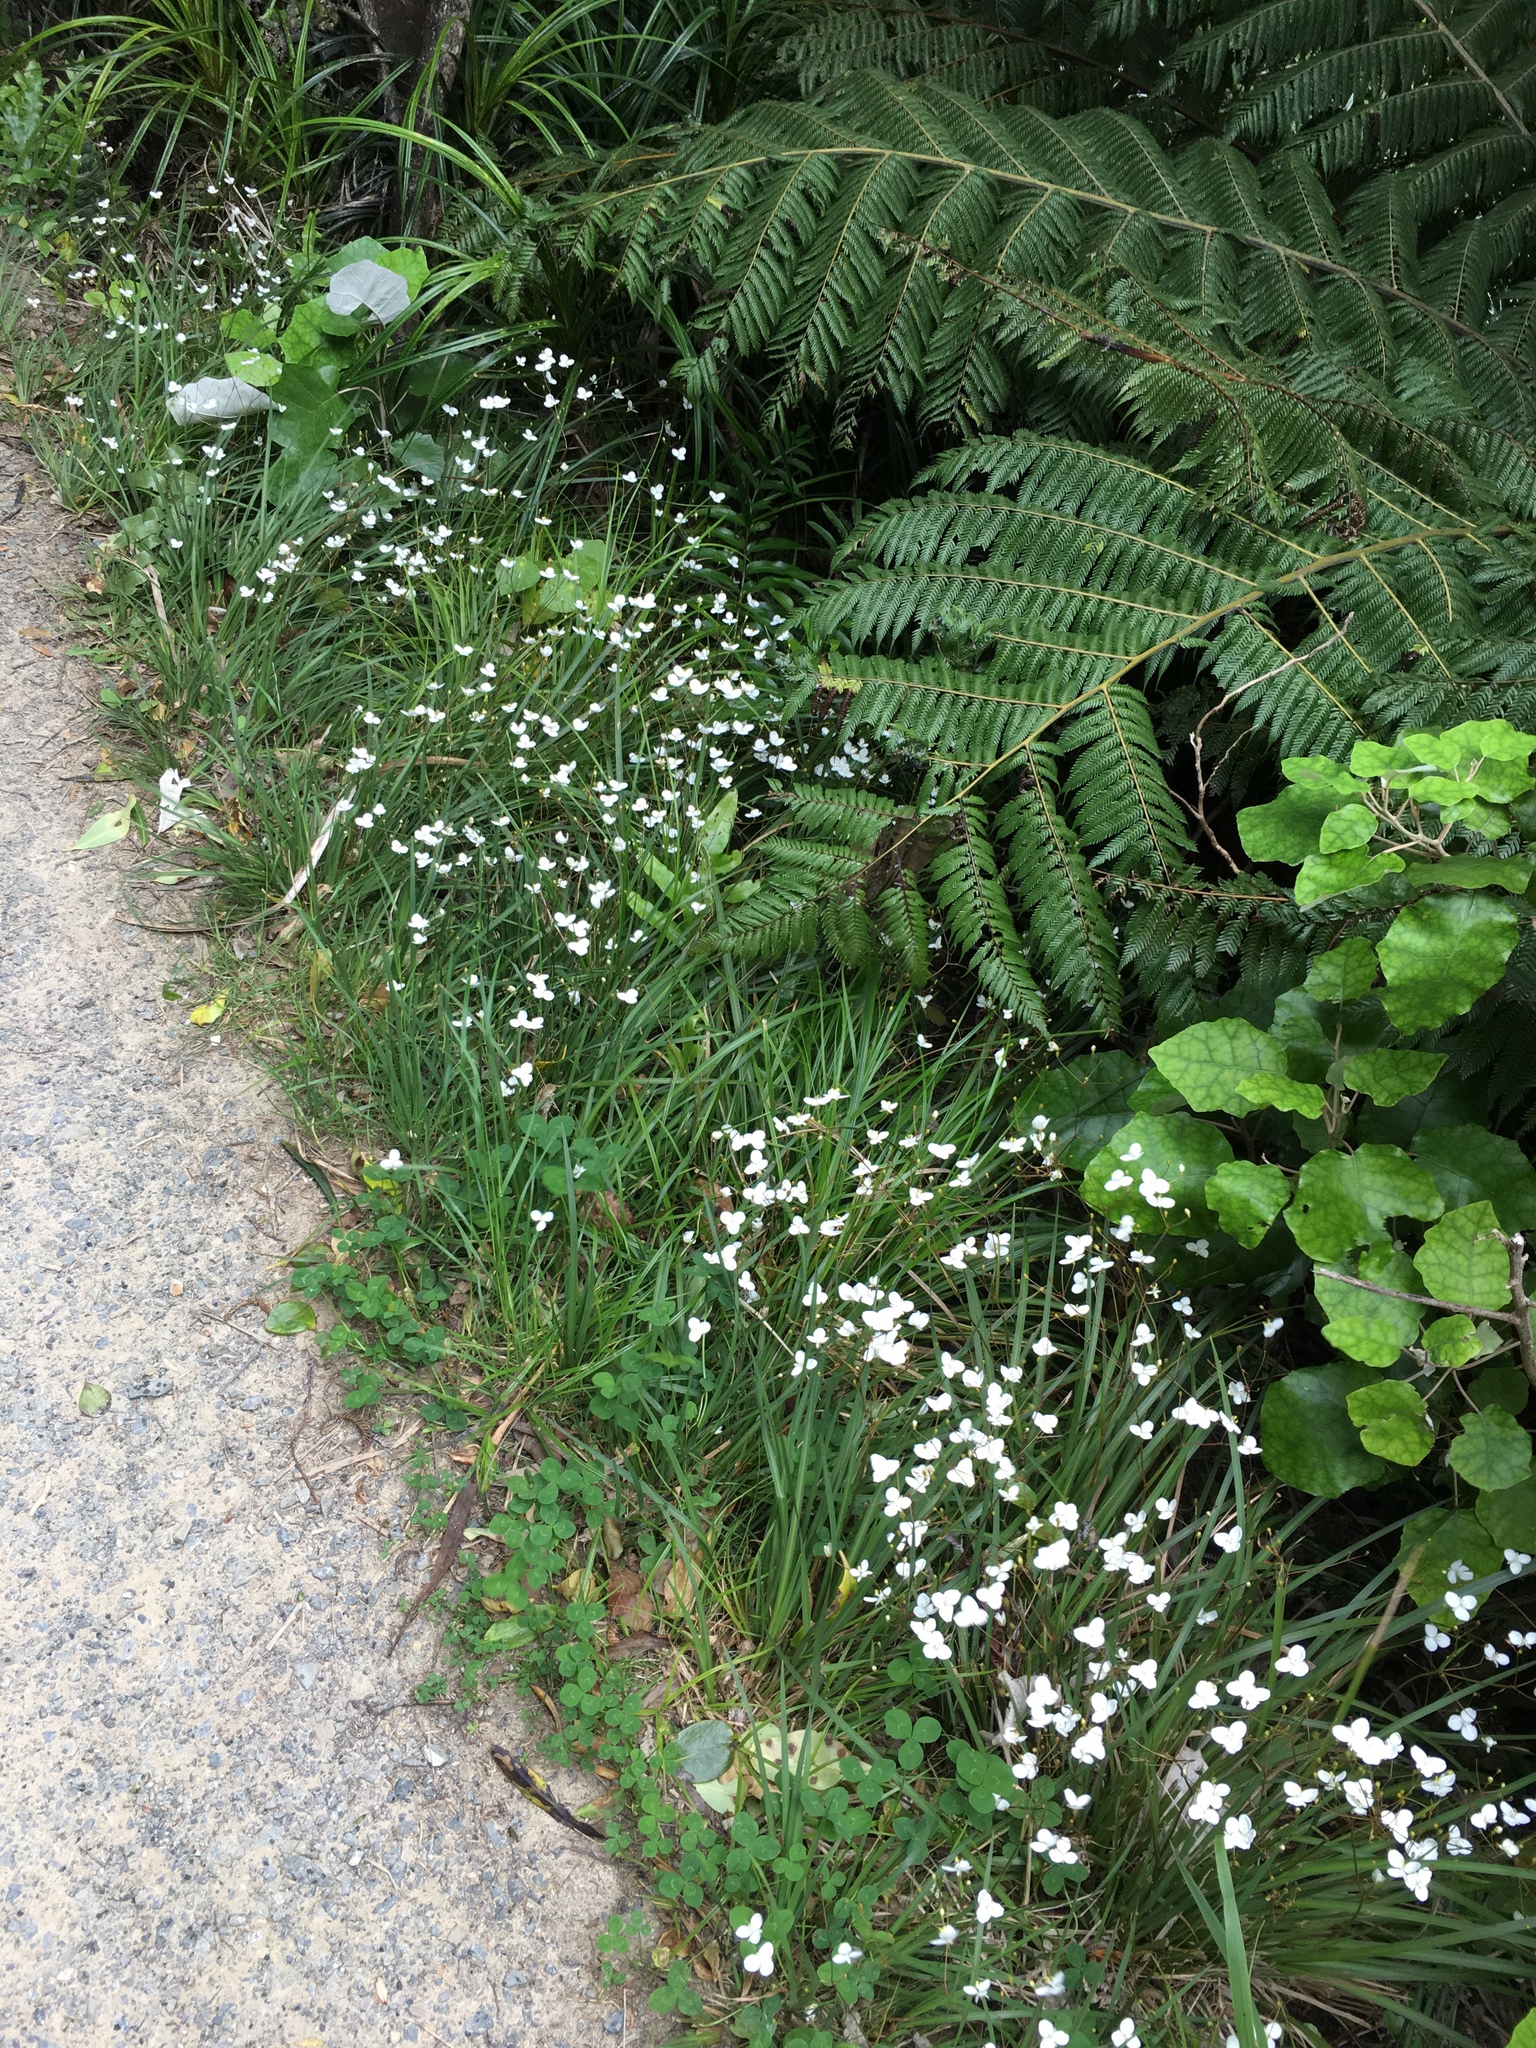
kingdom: Plantae
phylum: Tracheophyta
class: Liliopsida
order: Asparagales
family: Iridaceae
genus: Libertia
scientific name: Libertia ixioides
